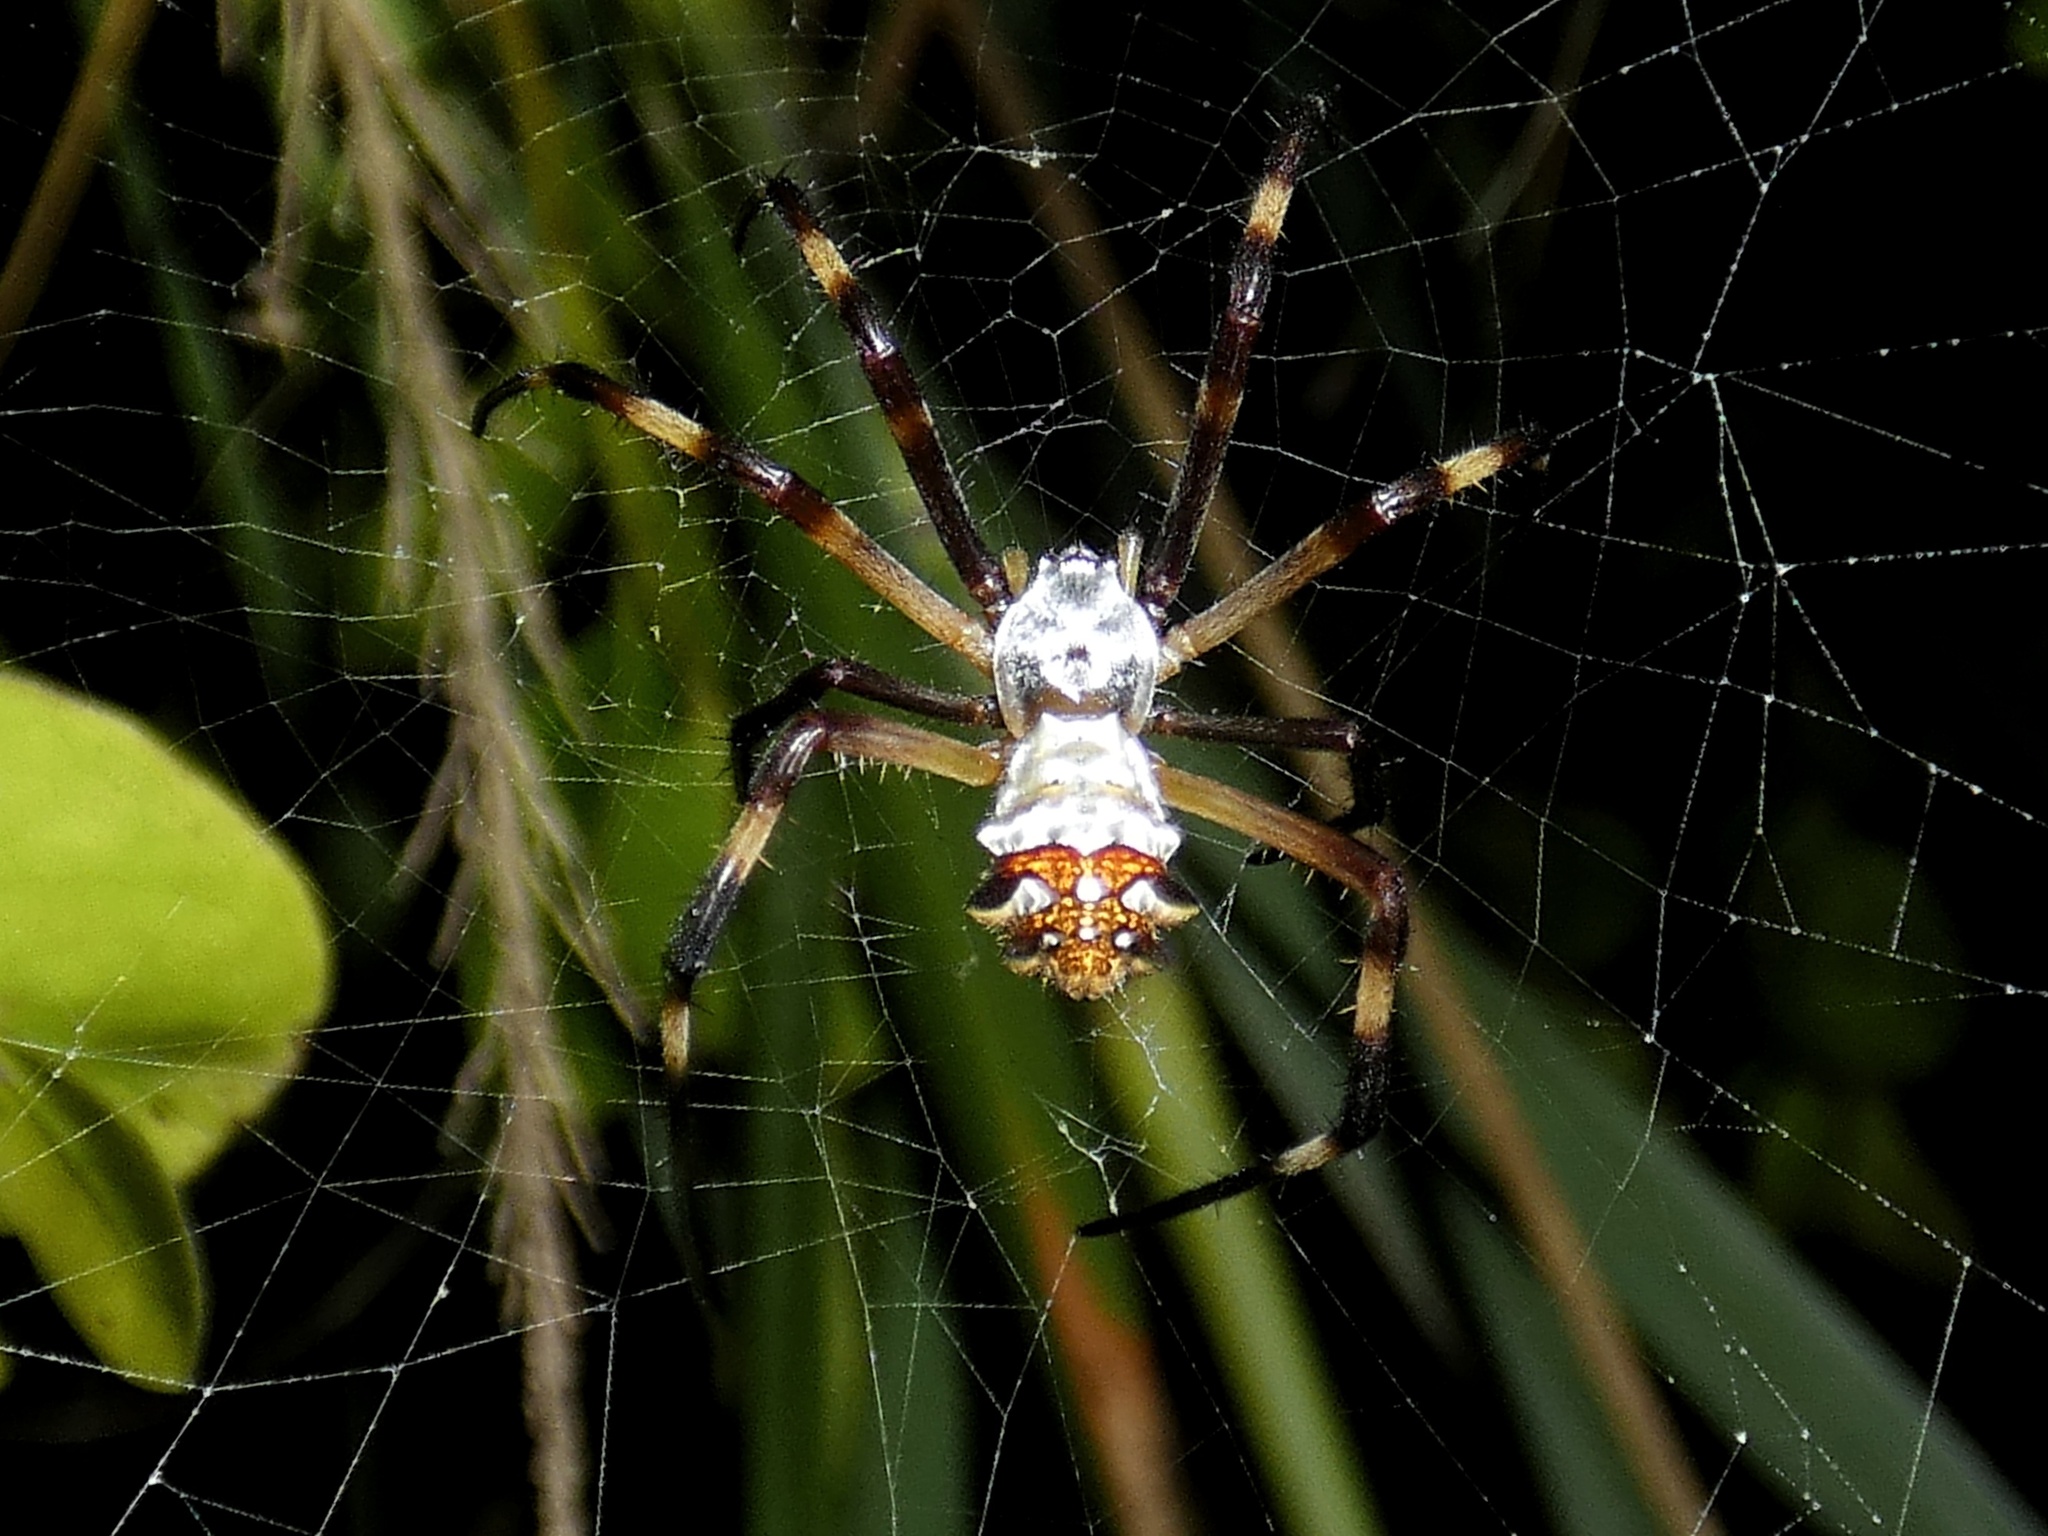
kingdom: Animalia
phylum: Arthropoda
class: Arachnida
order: Araneae
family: Araneidae
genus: Argiope
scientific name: Argiope argentata
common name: Orb weavers
